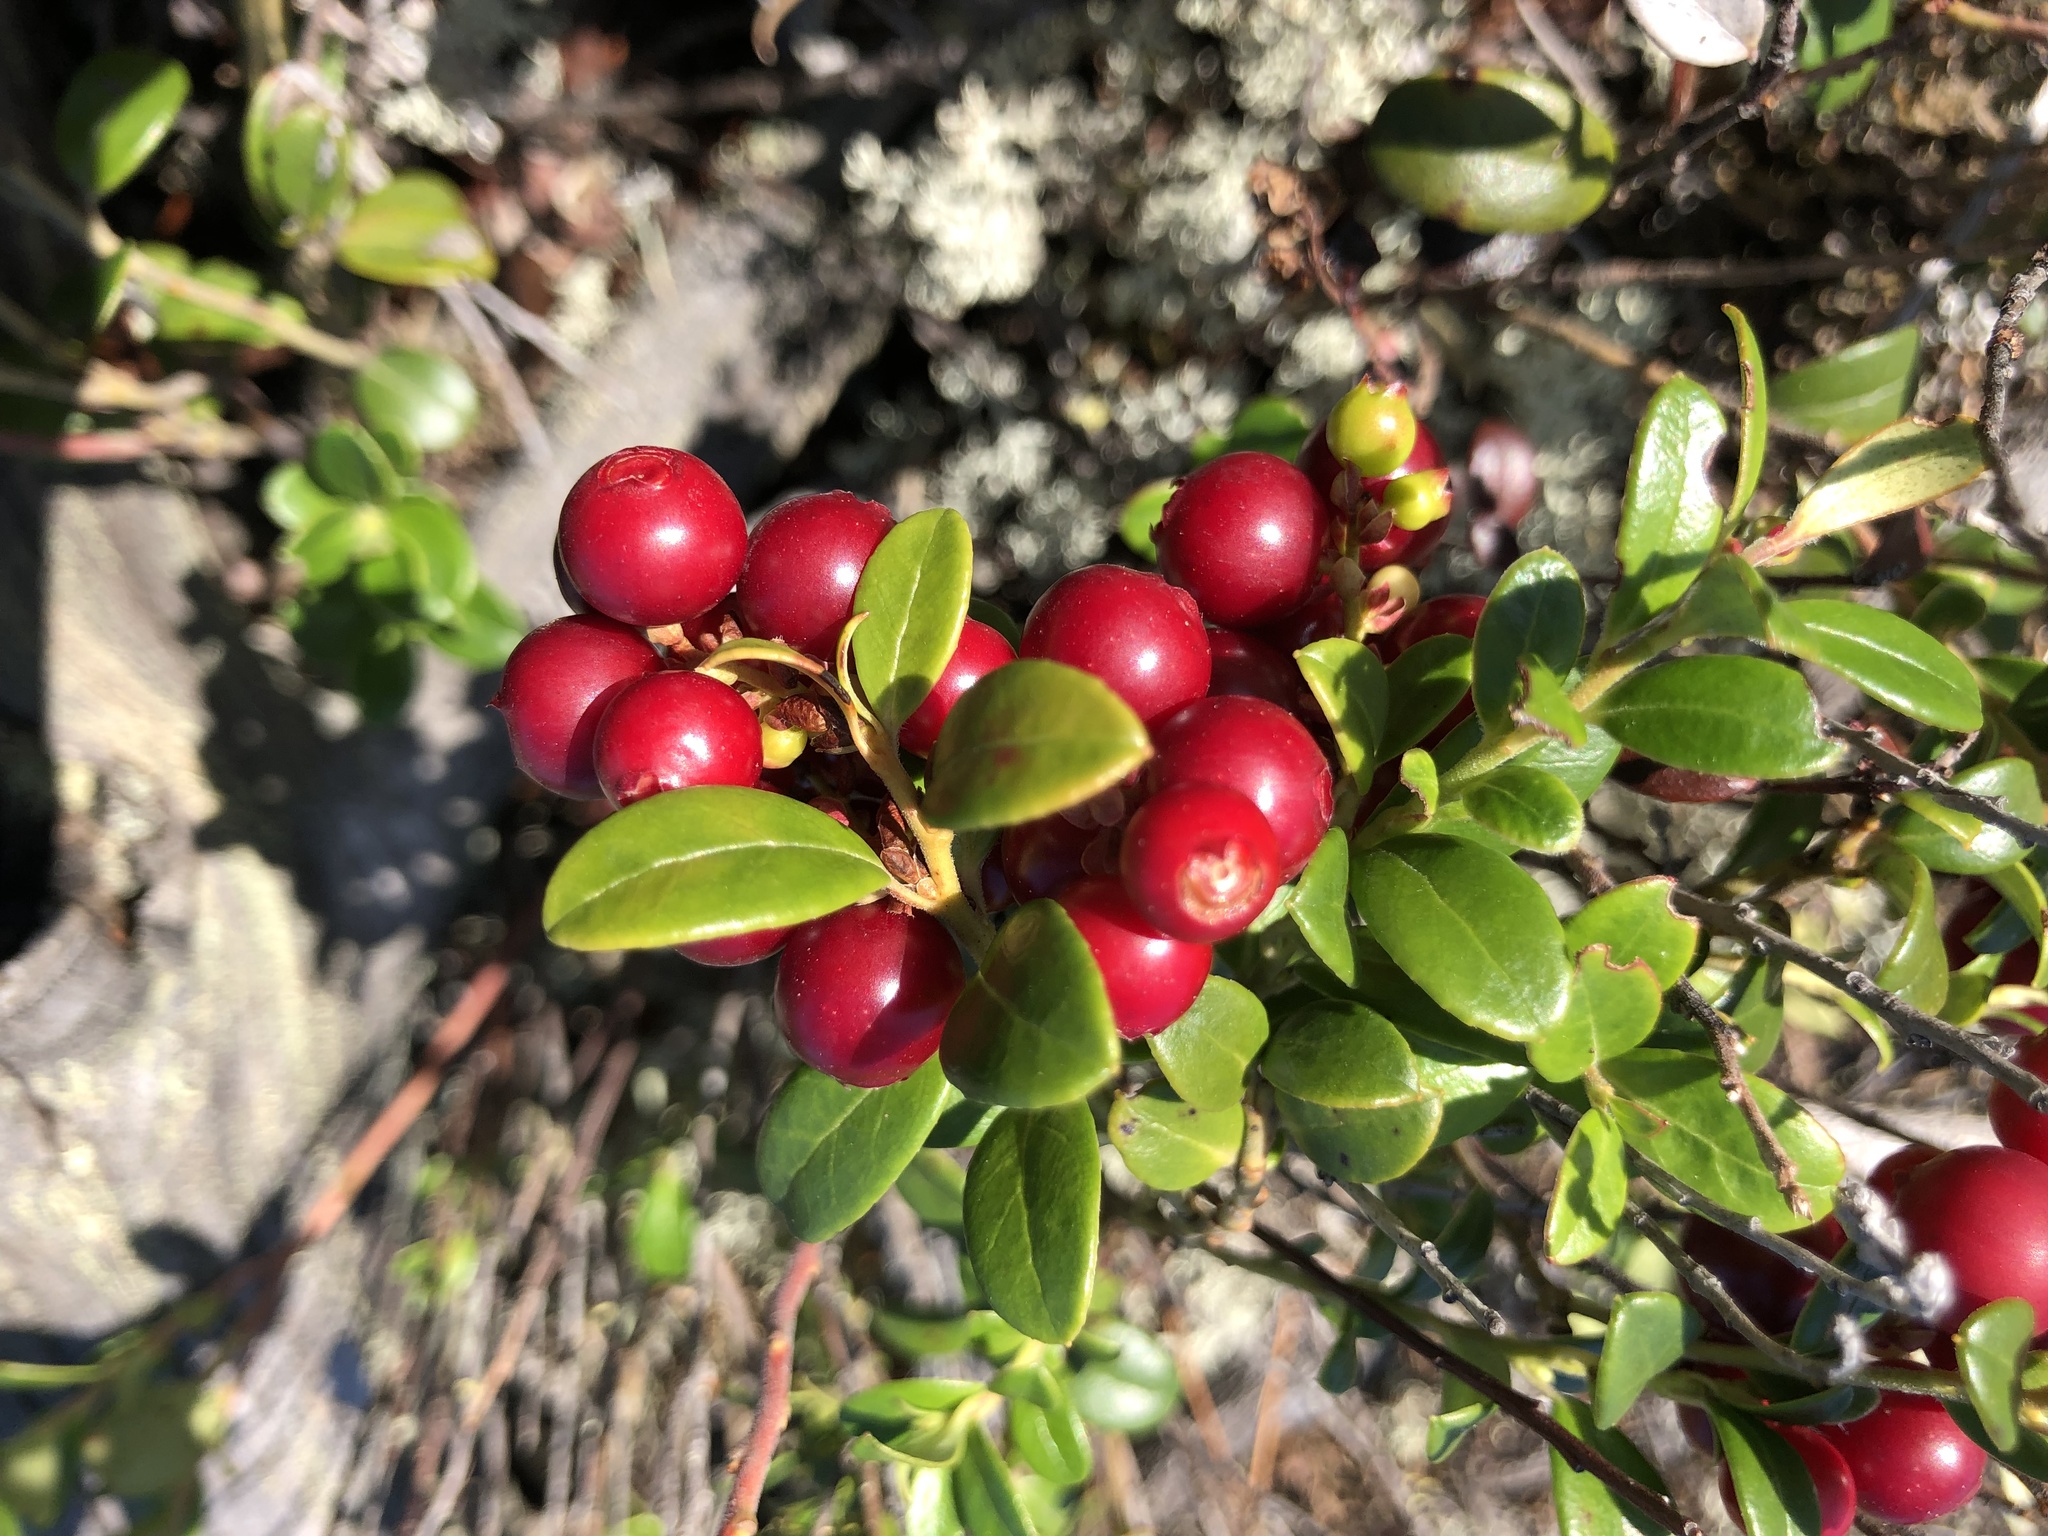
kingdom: Plantae
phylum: Tracheophyta
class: Magnoliopsida
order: Ericales
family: Ericaceae
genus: Vaccinium
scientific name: Vaccinium vitis-idaea
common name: Cowberry
